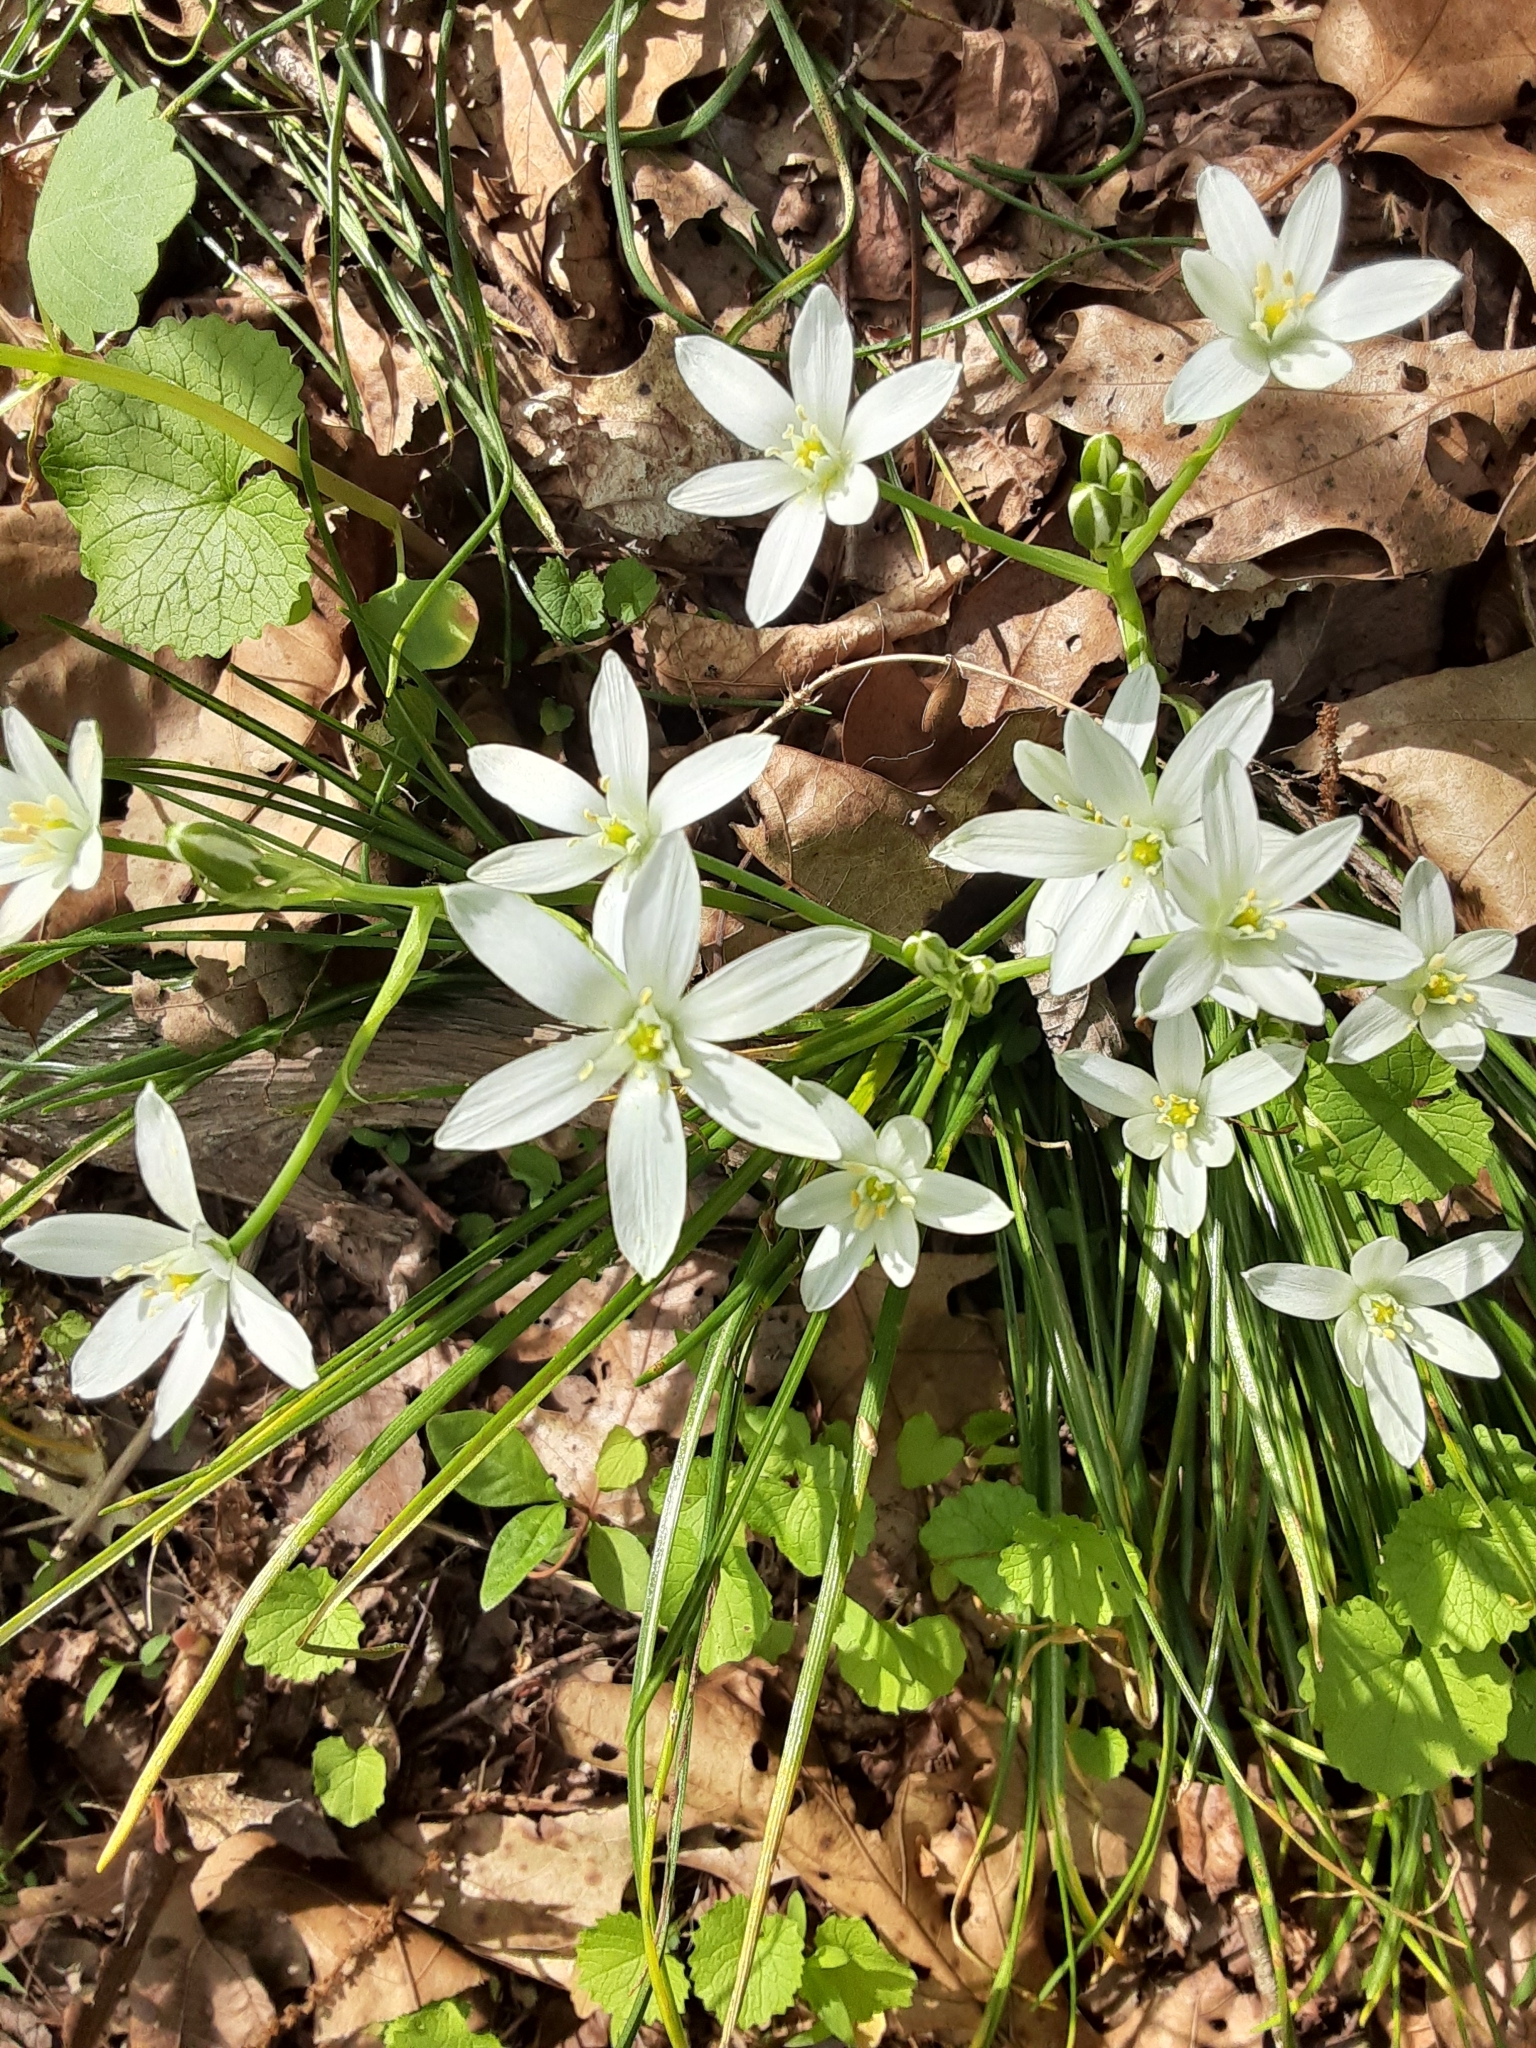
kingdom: Plantae
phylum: Tracheophyta
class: Liliopsida
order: Asparagales
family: Asparagaceae
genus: Ornithogalum
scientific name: Ornithogalum umbellatum
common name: Garden star-of-bethlehem
